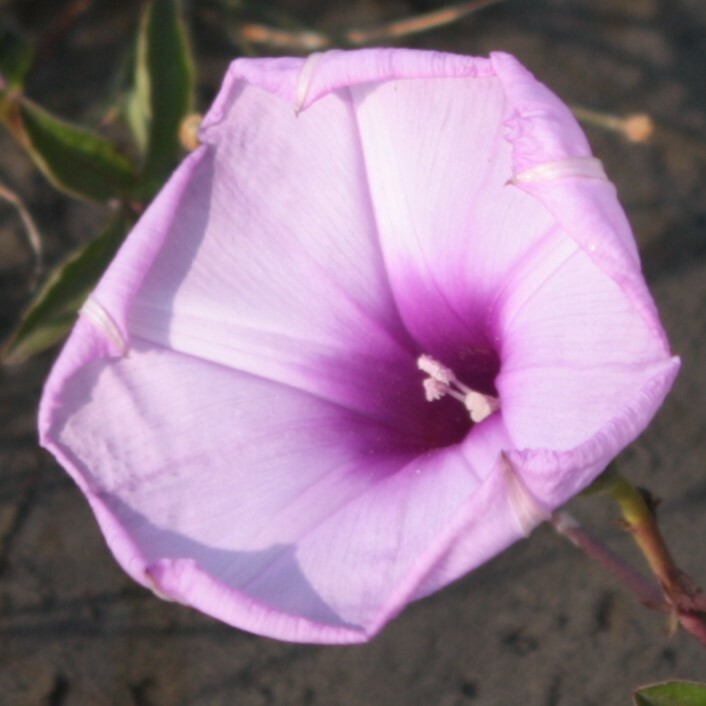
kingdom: Plantae
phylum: Tracheophyta
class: Magnoliopsida
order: Solanales
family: Convolvulaceae
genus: Ipomoea
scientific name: Ipomoea cairica
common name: Mile a minute vine
